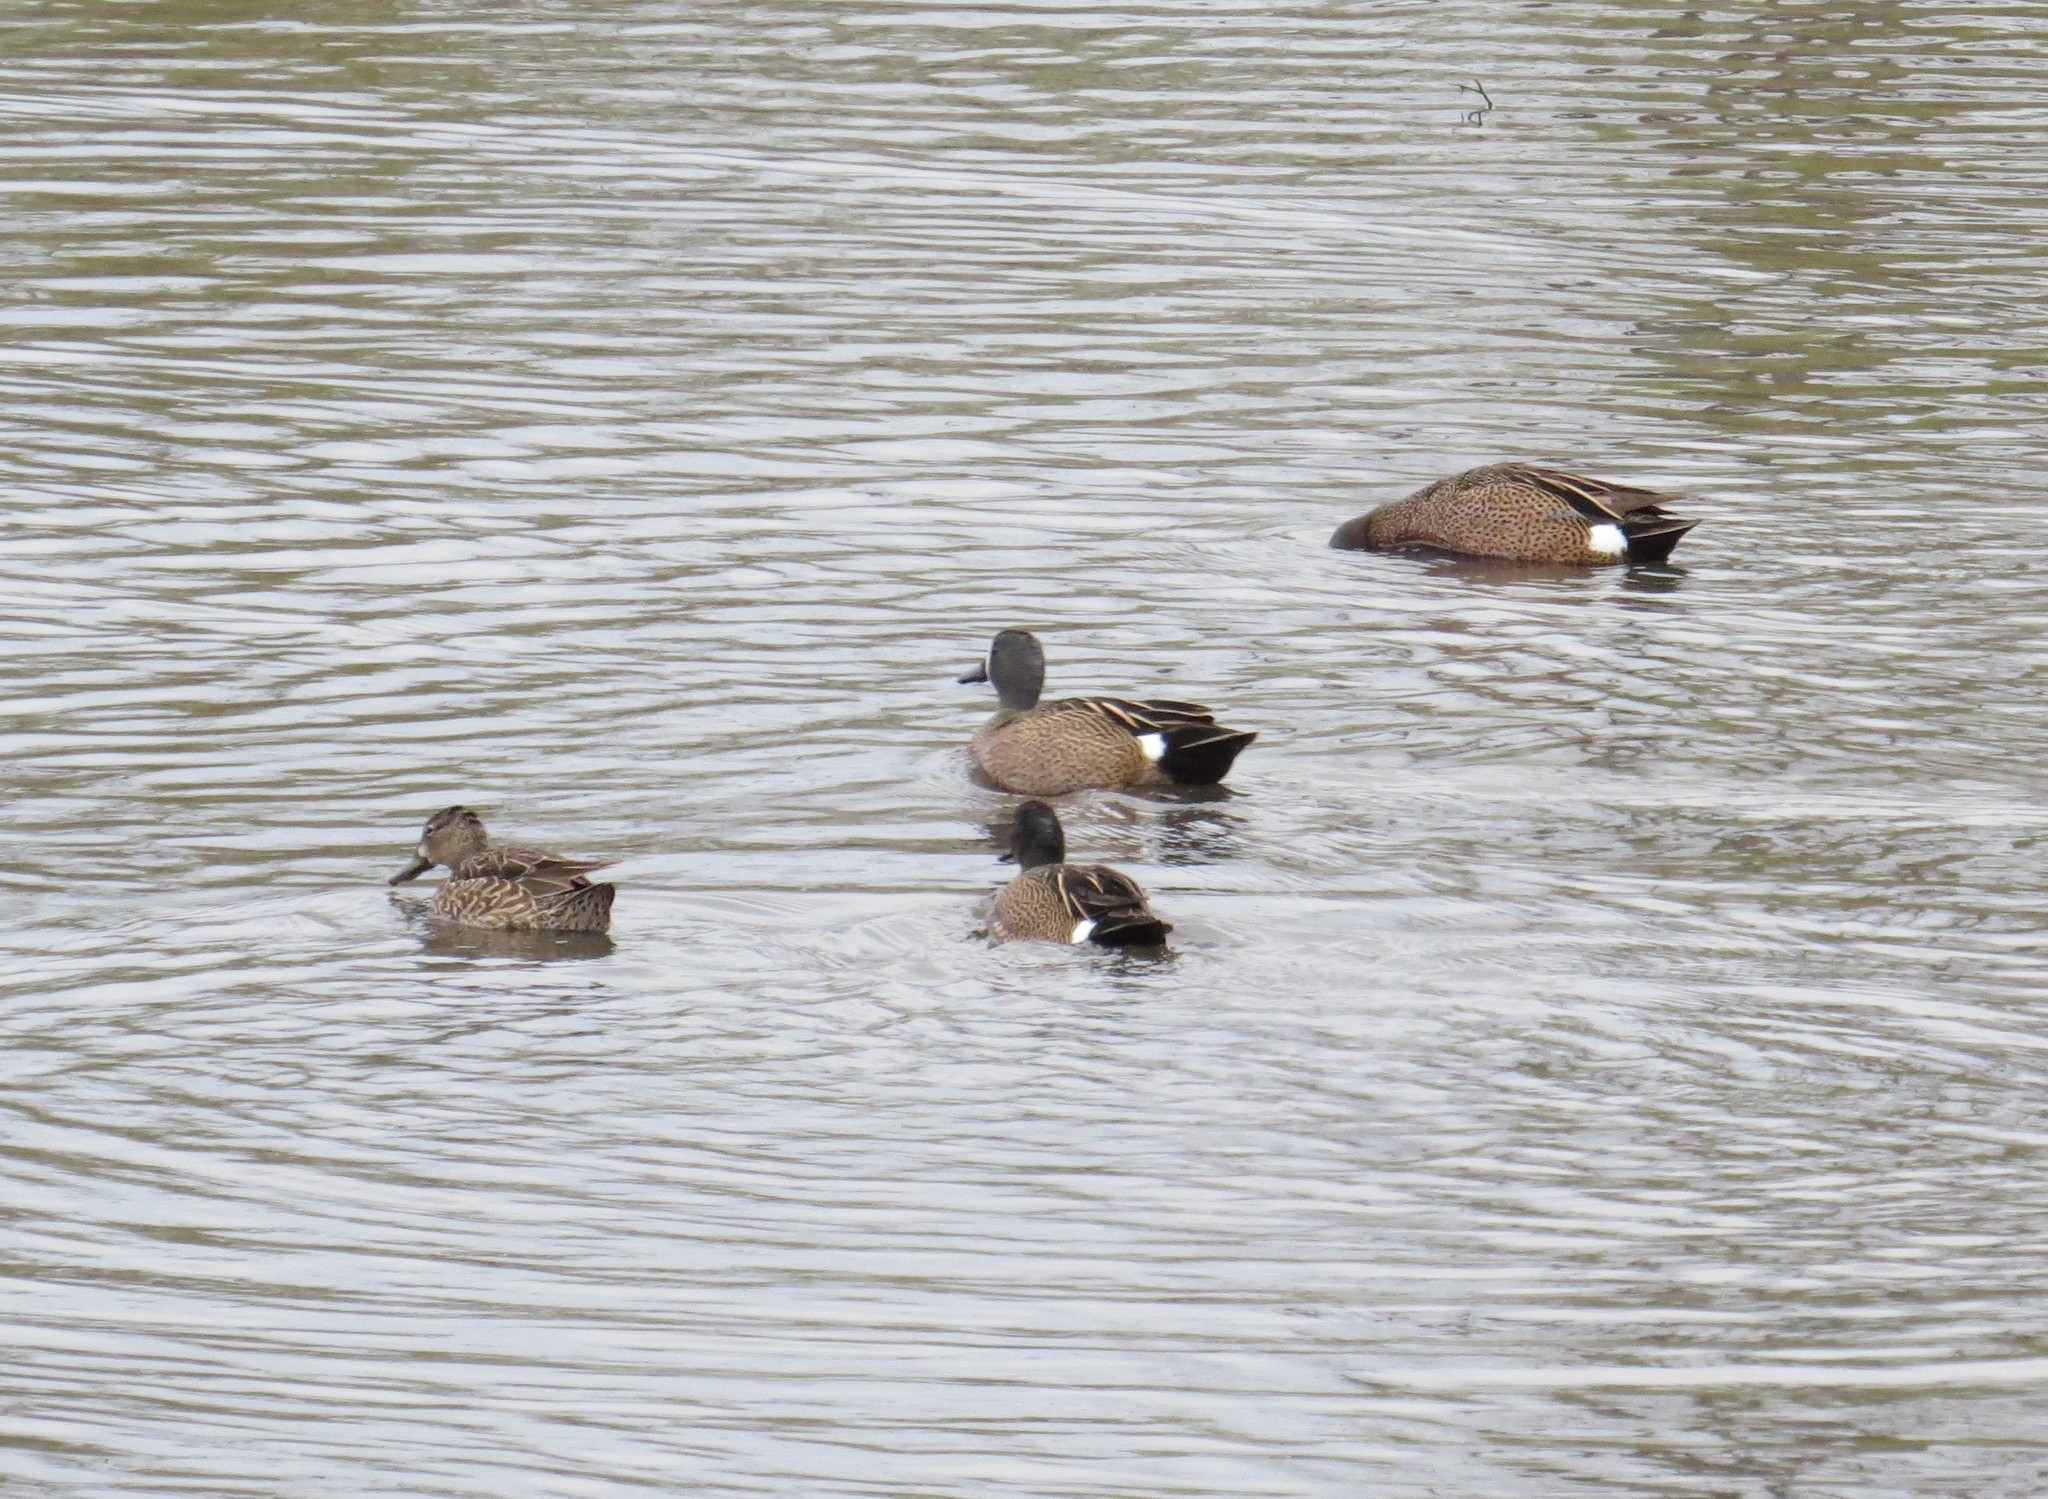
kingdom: Animalia
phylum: Chordata
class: Aves
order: Anseriformes
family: Anatidae
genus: Spatula
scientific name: Spatula discors
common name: Blue-winged teal
